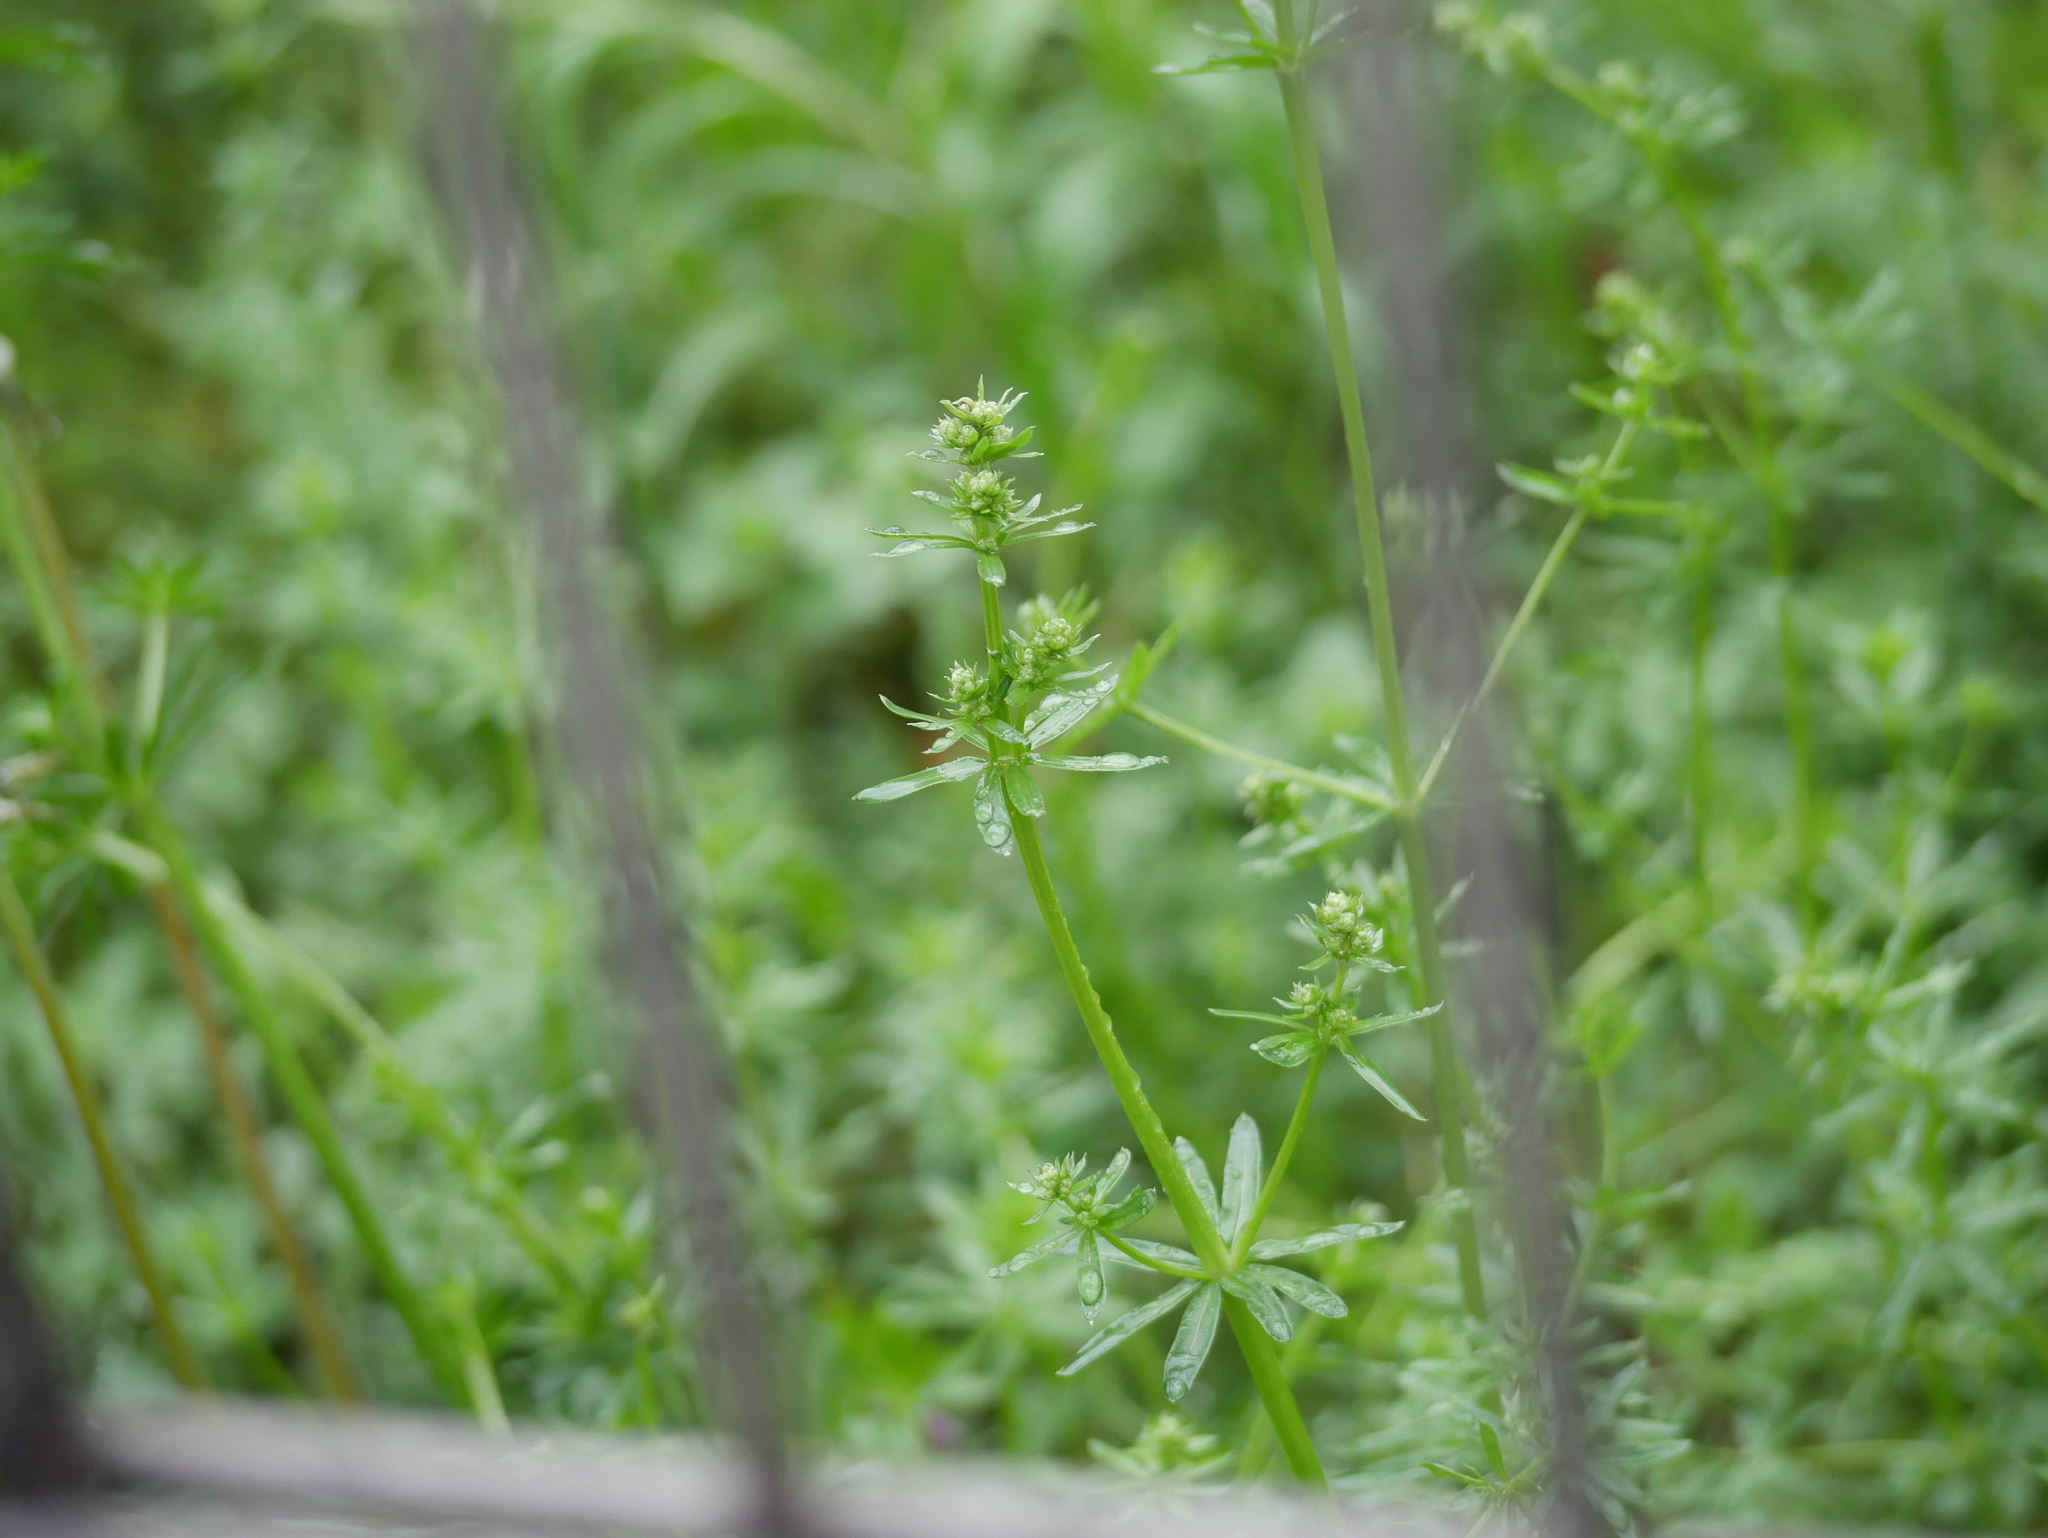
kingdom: Plantae
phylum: Tracheophyta
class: Magnoliopsida
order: Gentianales
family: Rubiaceae
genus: Galium
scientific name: Galium album
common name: White bedstraw
